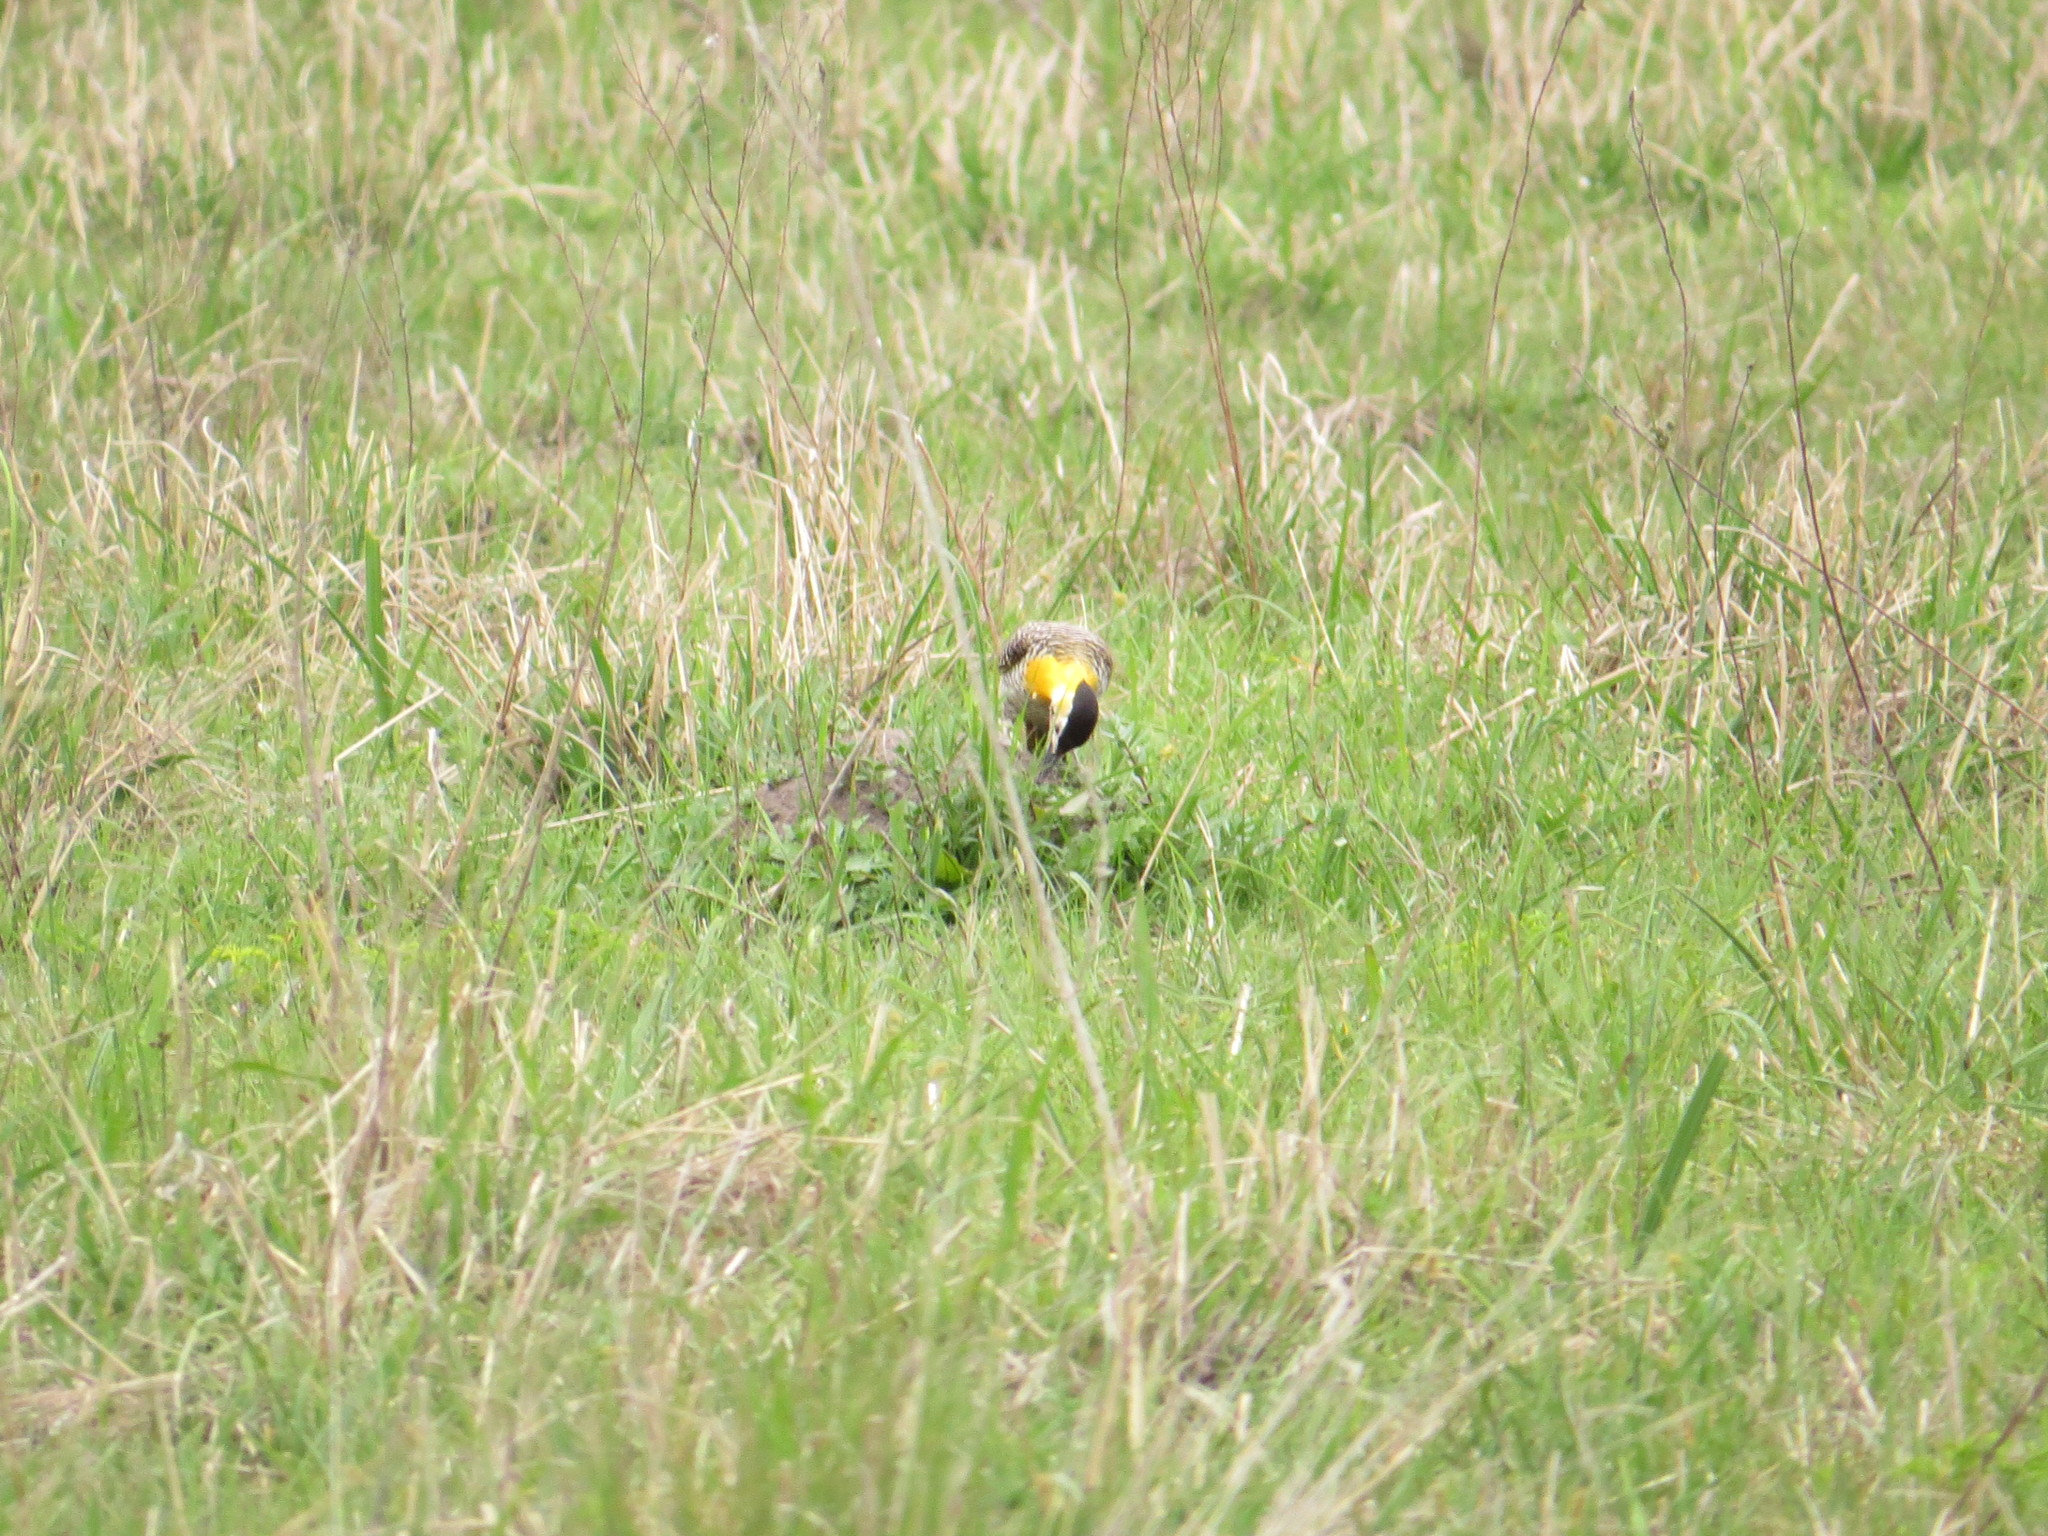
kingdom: Animalia
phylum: Chordata
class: Aves
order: Piciformes
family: Picidae
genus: Colaptes
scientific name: Colaptes campestris
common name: Campo flicker
